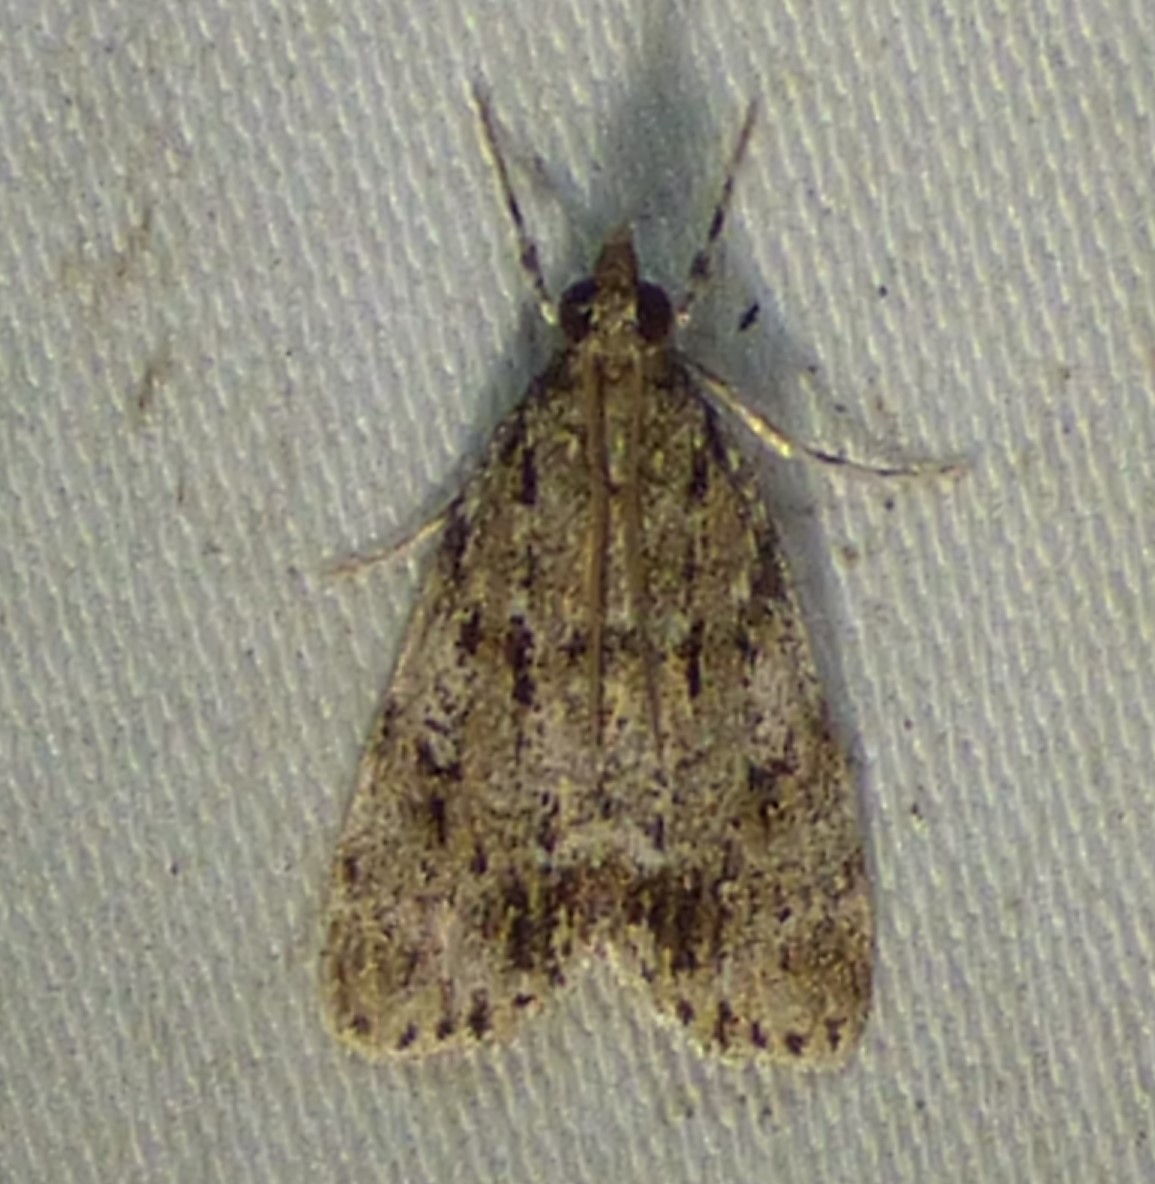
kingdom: Animalia
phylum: Arthropoda
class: Insecta
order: Lepidoptera
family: Crambidae
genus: Scoparia
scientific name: Scoparia basalis
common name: Many-spotted scoparia moth
